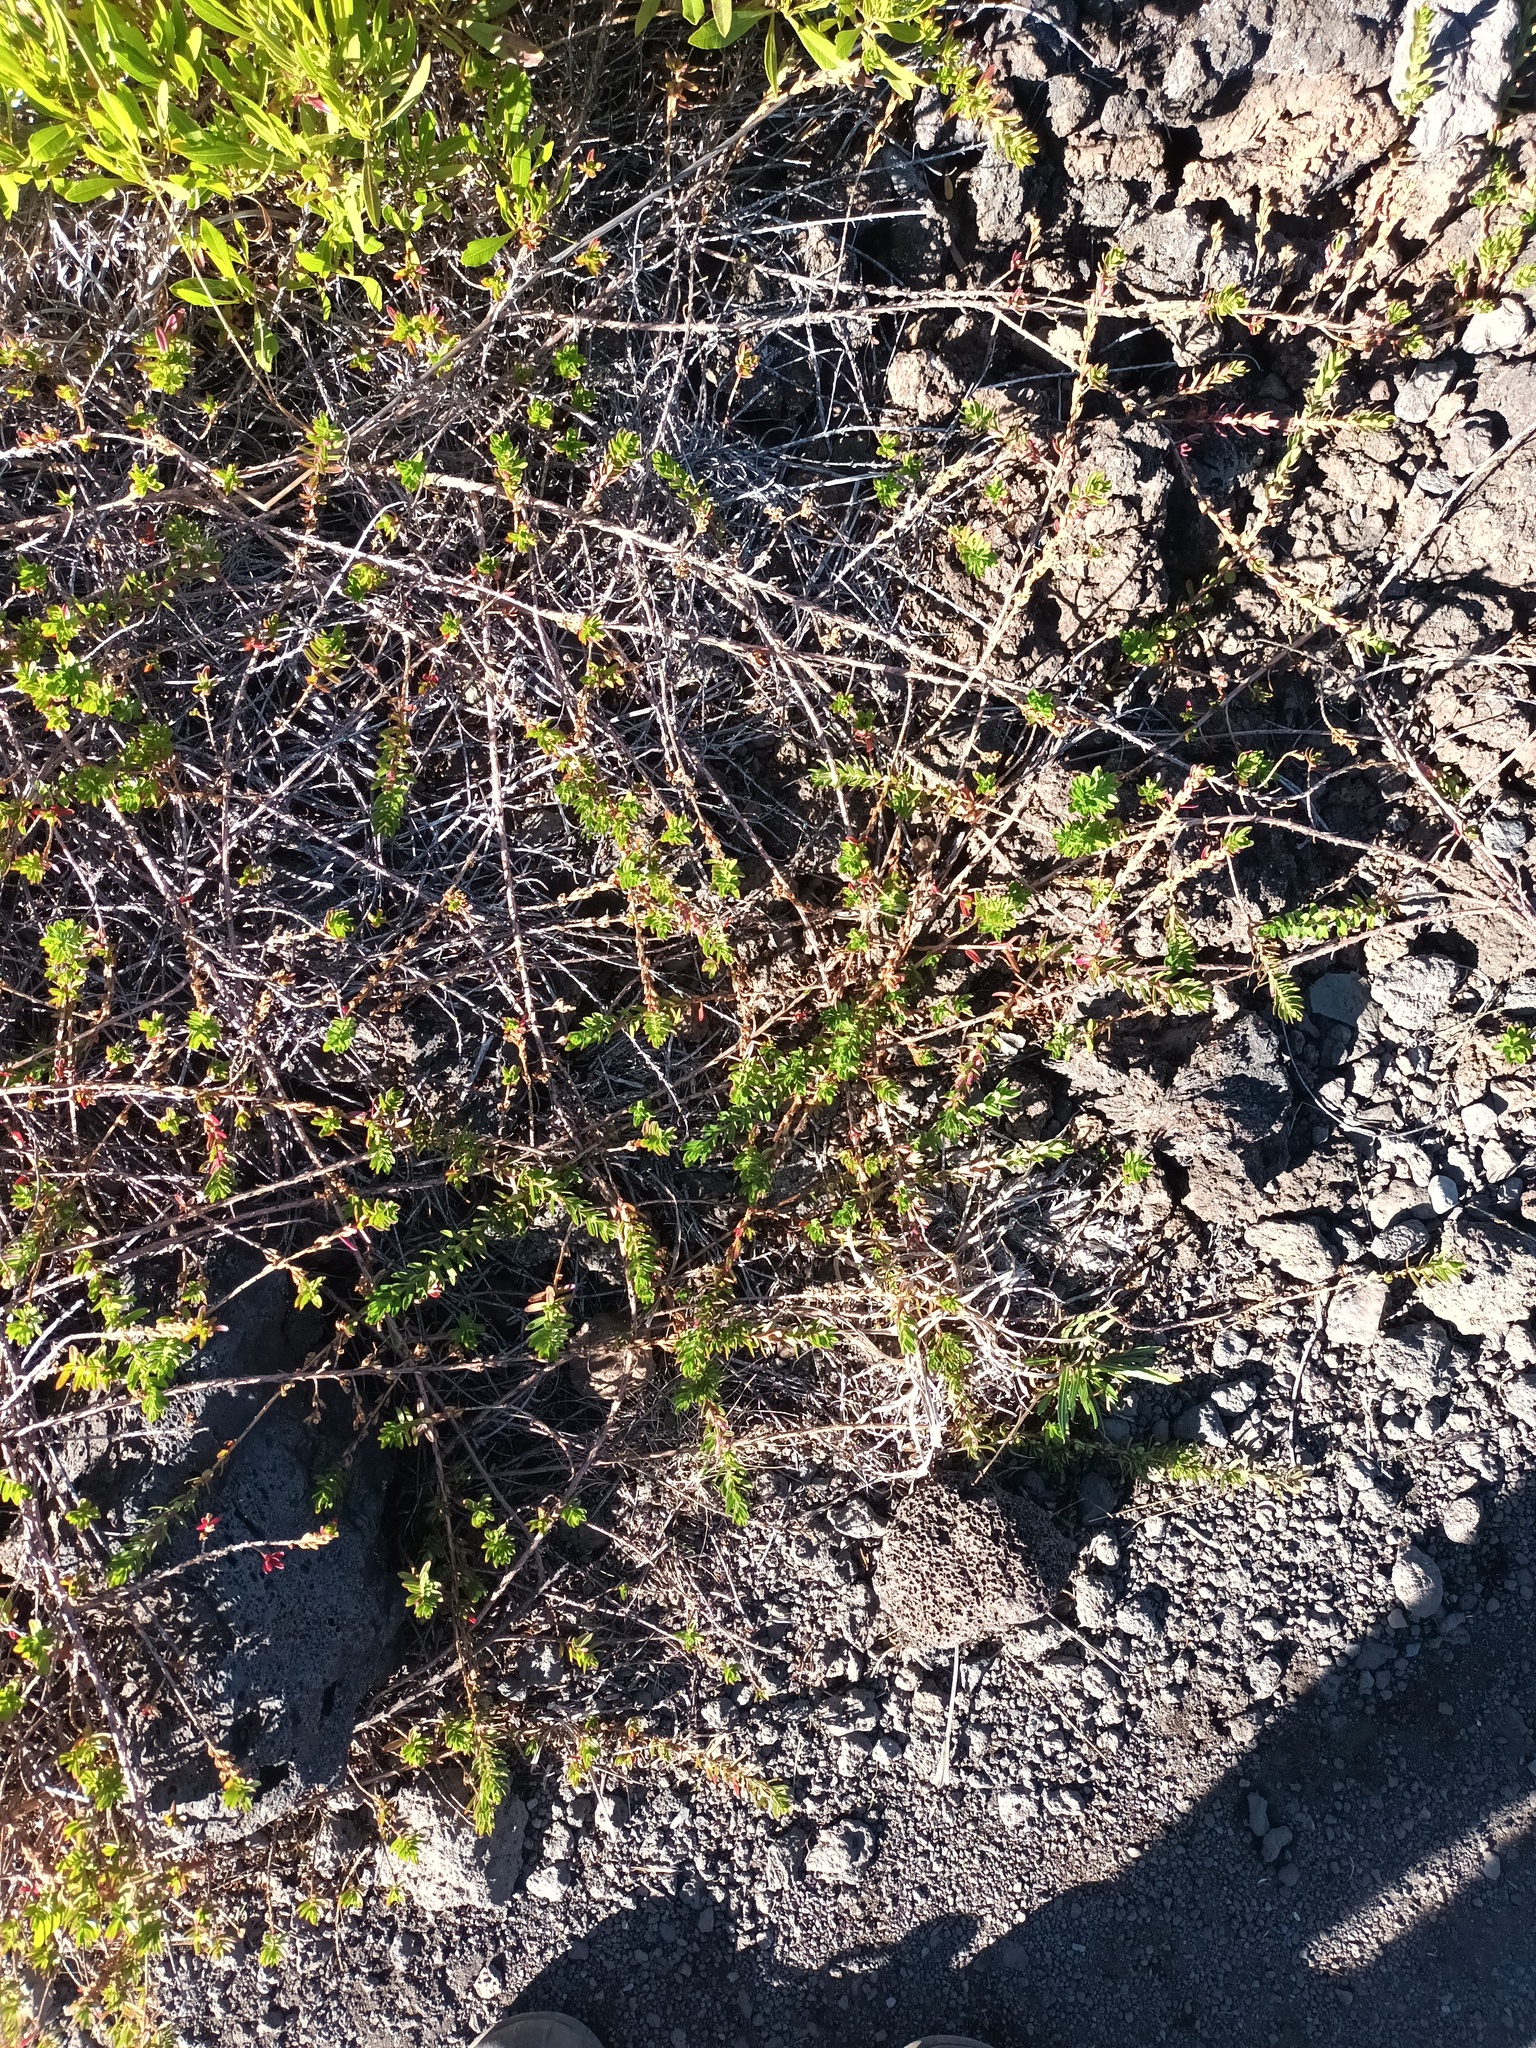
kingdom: Plantae
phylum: Tracheophyta
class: Magnoliopsida
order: Myrtales
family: Lythraceae
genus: Lythrum
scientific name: Lythrum maritimum
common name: Pukamole
